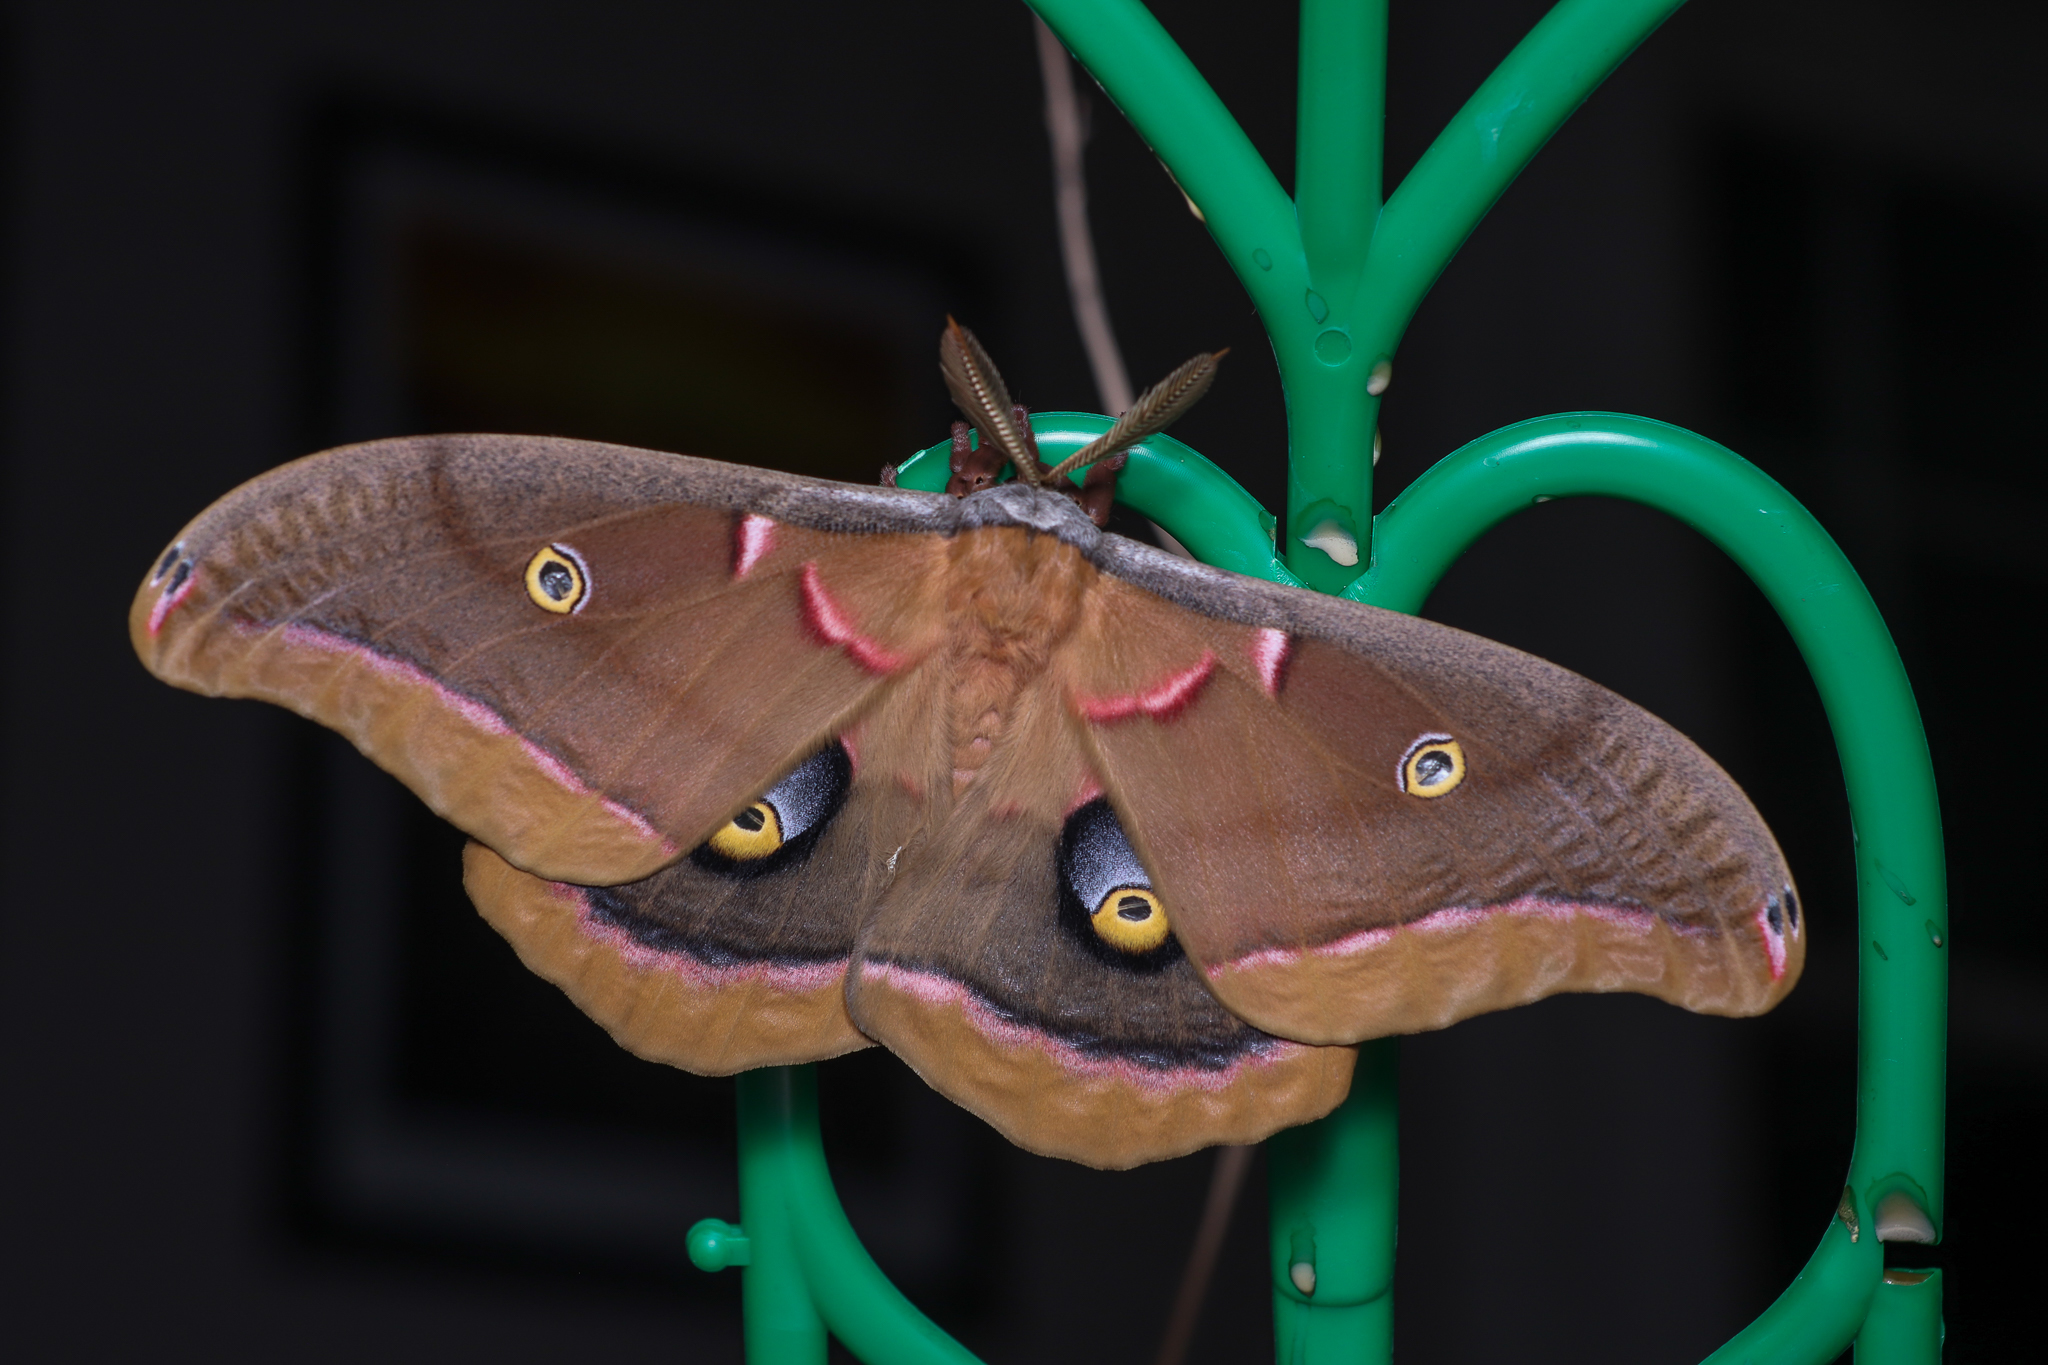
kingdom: Animalia
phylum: Arthropoda
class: Insecta
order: Lepidoptera
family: Saturniidae
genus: Antheraea
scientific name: Antheraea polyphemus
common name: Polyphemus moth
